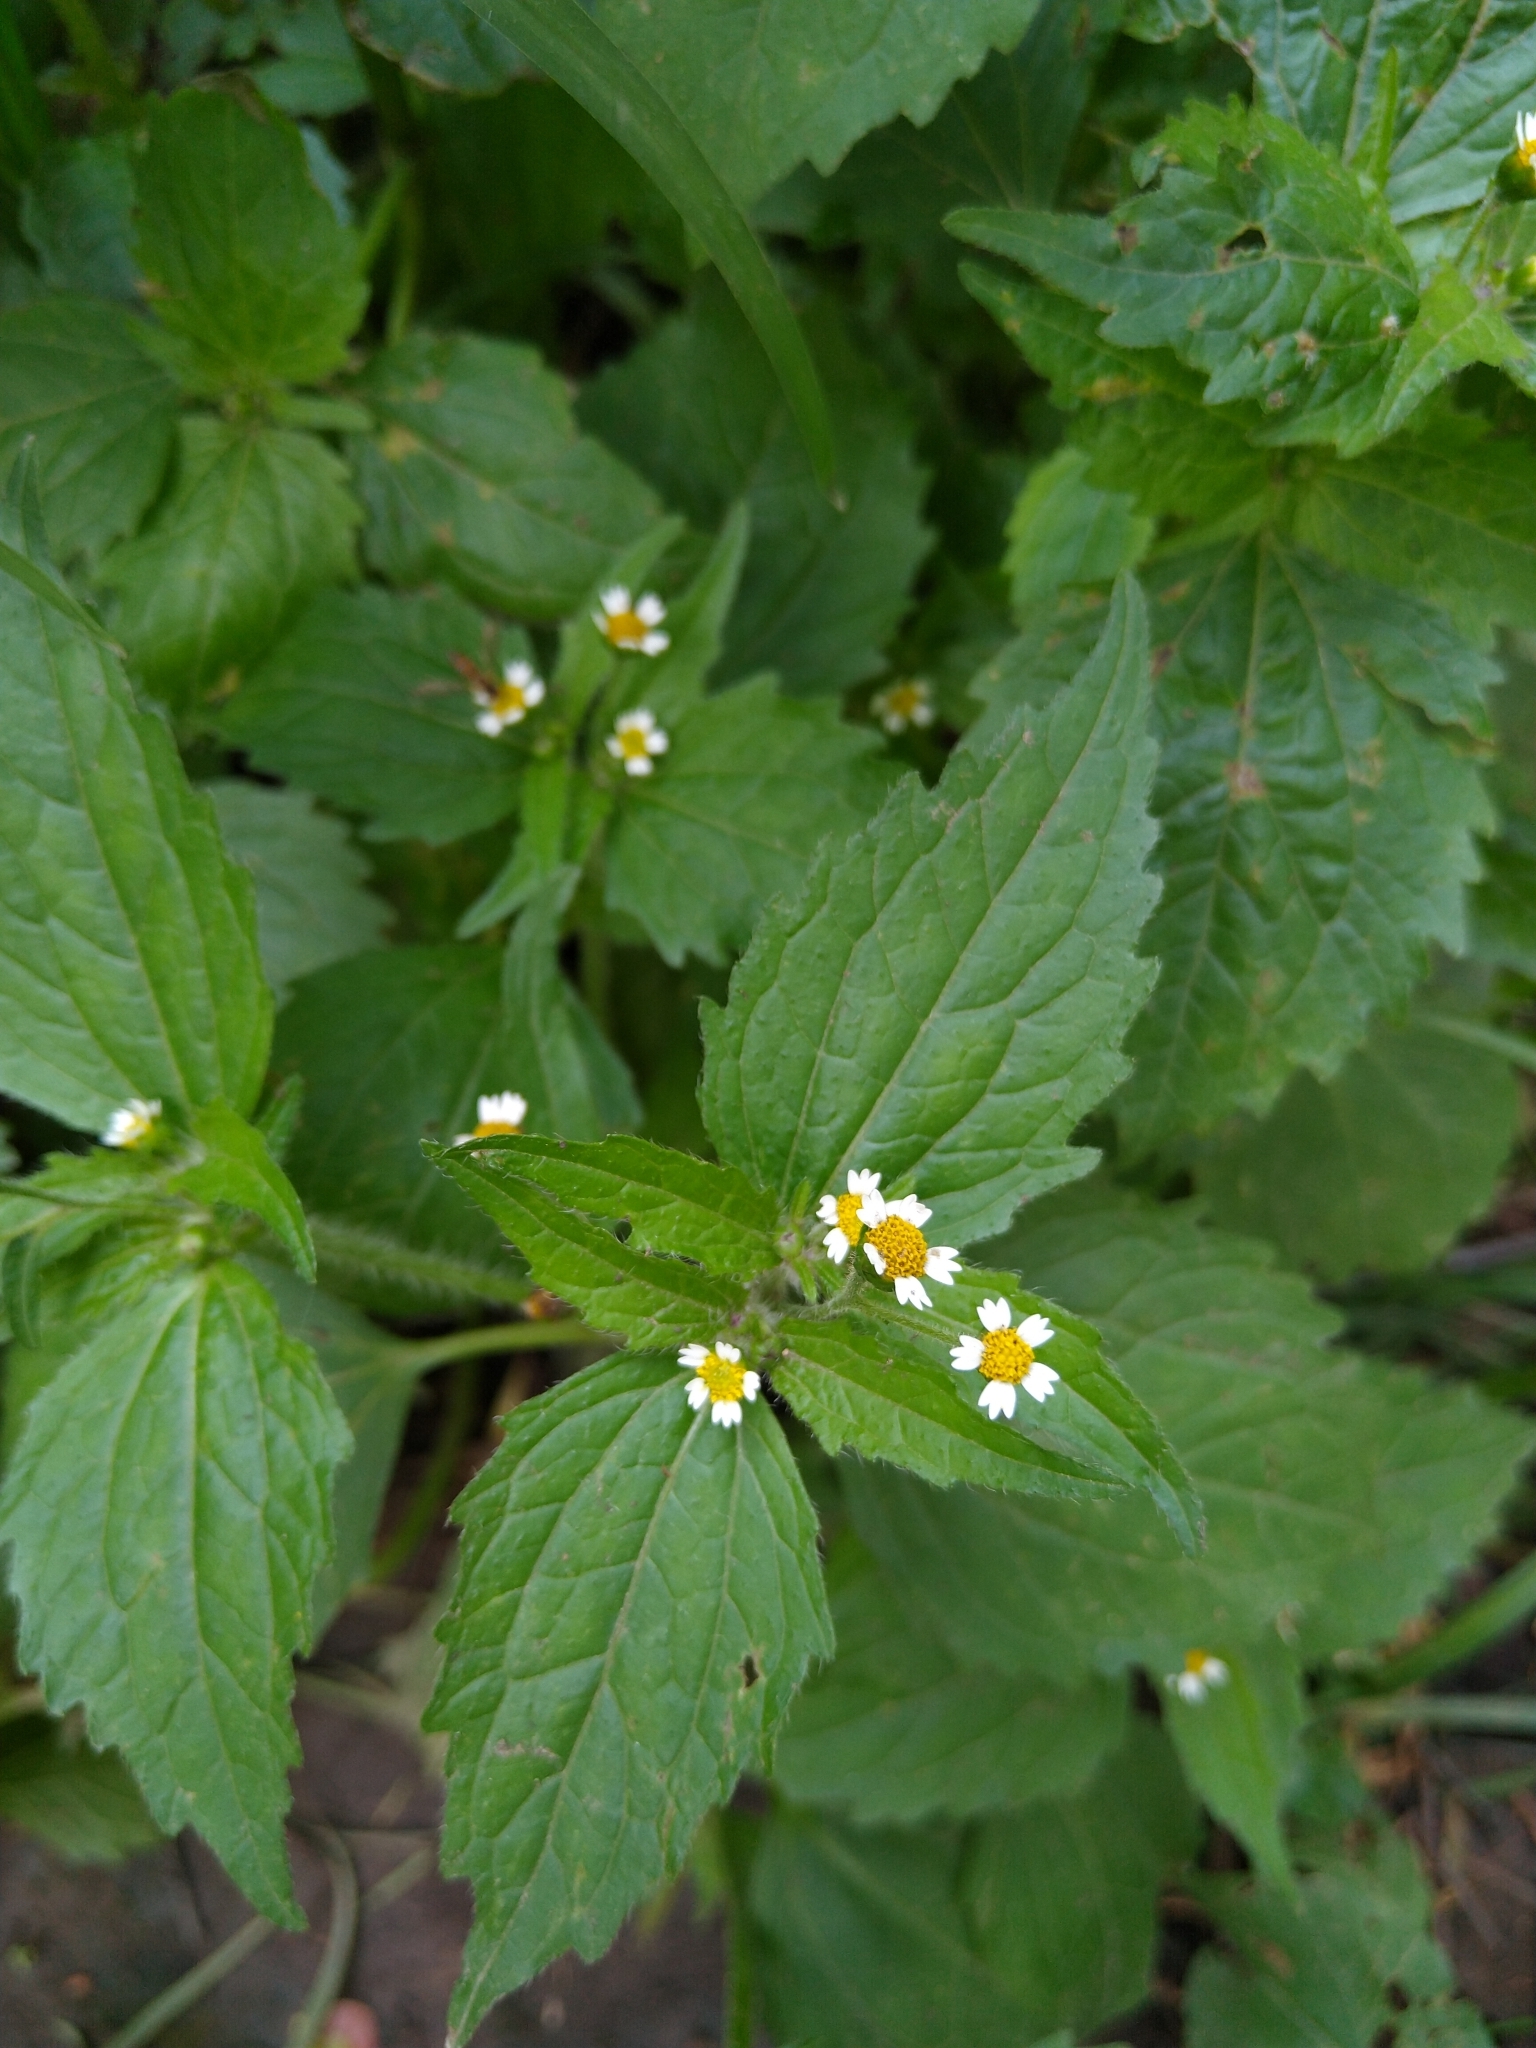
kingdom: Plantae
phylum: Tracheophyta
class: Magnoliopsida
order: Asterales
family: Asteraceae
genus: Galinsoga
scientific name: Galinsoga quadriradiata
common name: Shaggy soldier
